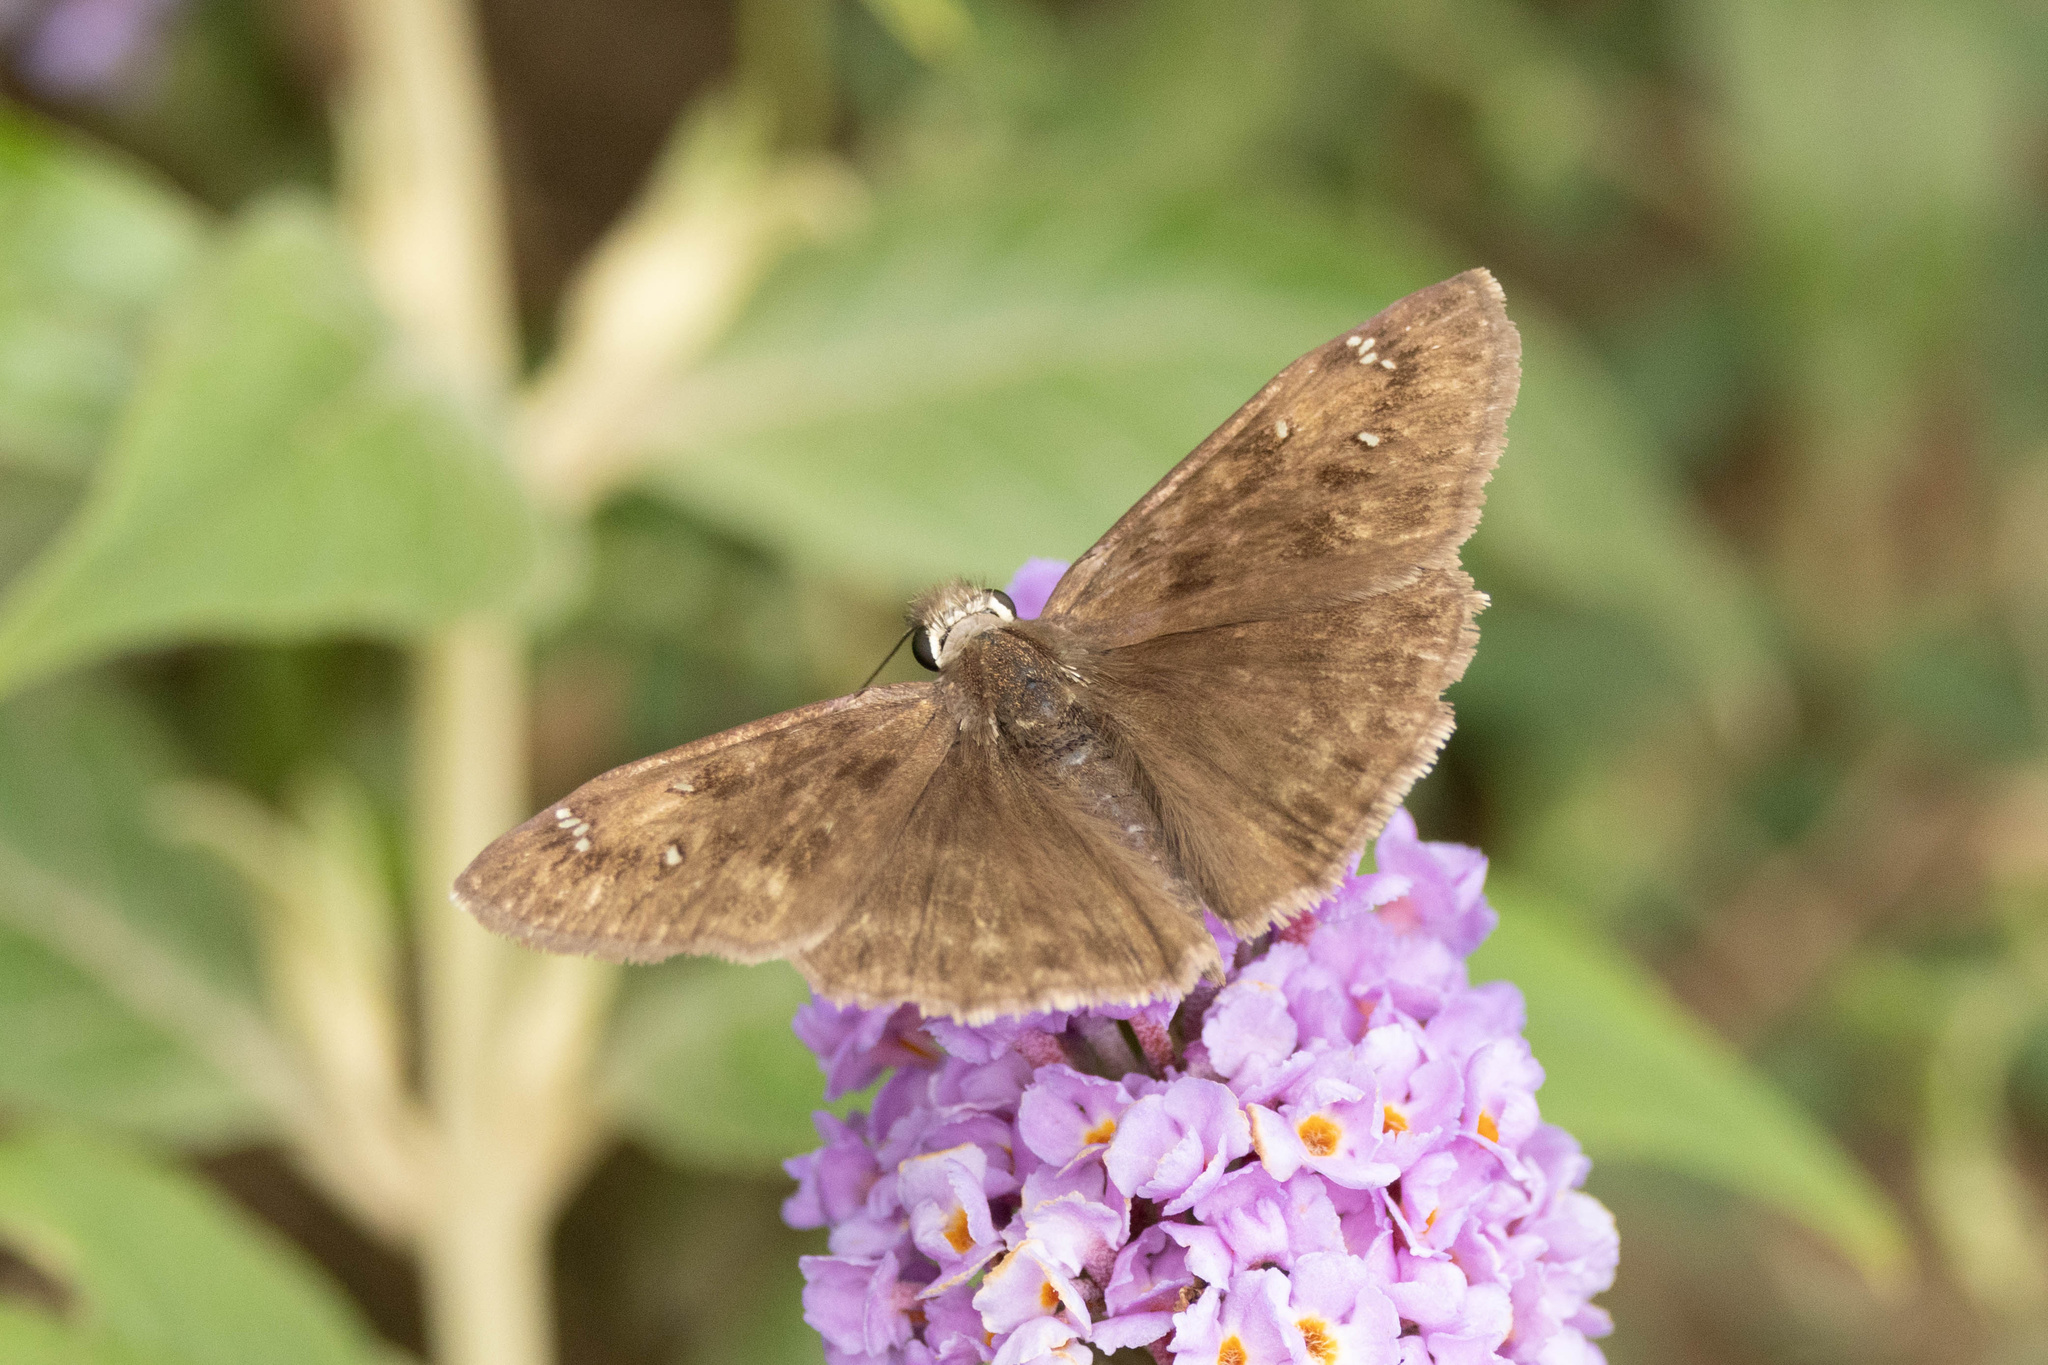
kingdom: Animalia
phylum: Arthropoda
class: Insecta
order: Lepidoptera
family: Hesperiidae
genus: Erynnis
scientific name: Erynnis horatius
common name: Horace's duskywing
